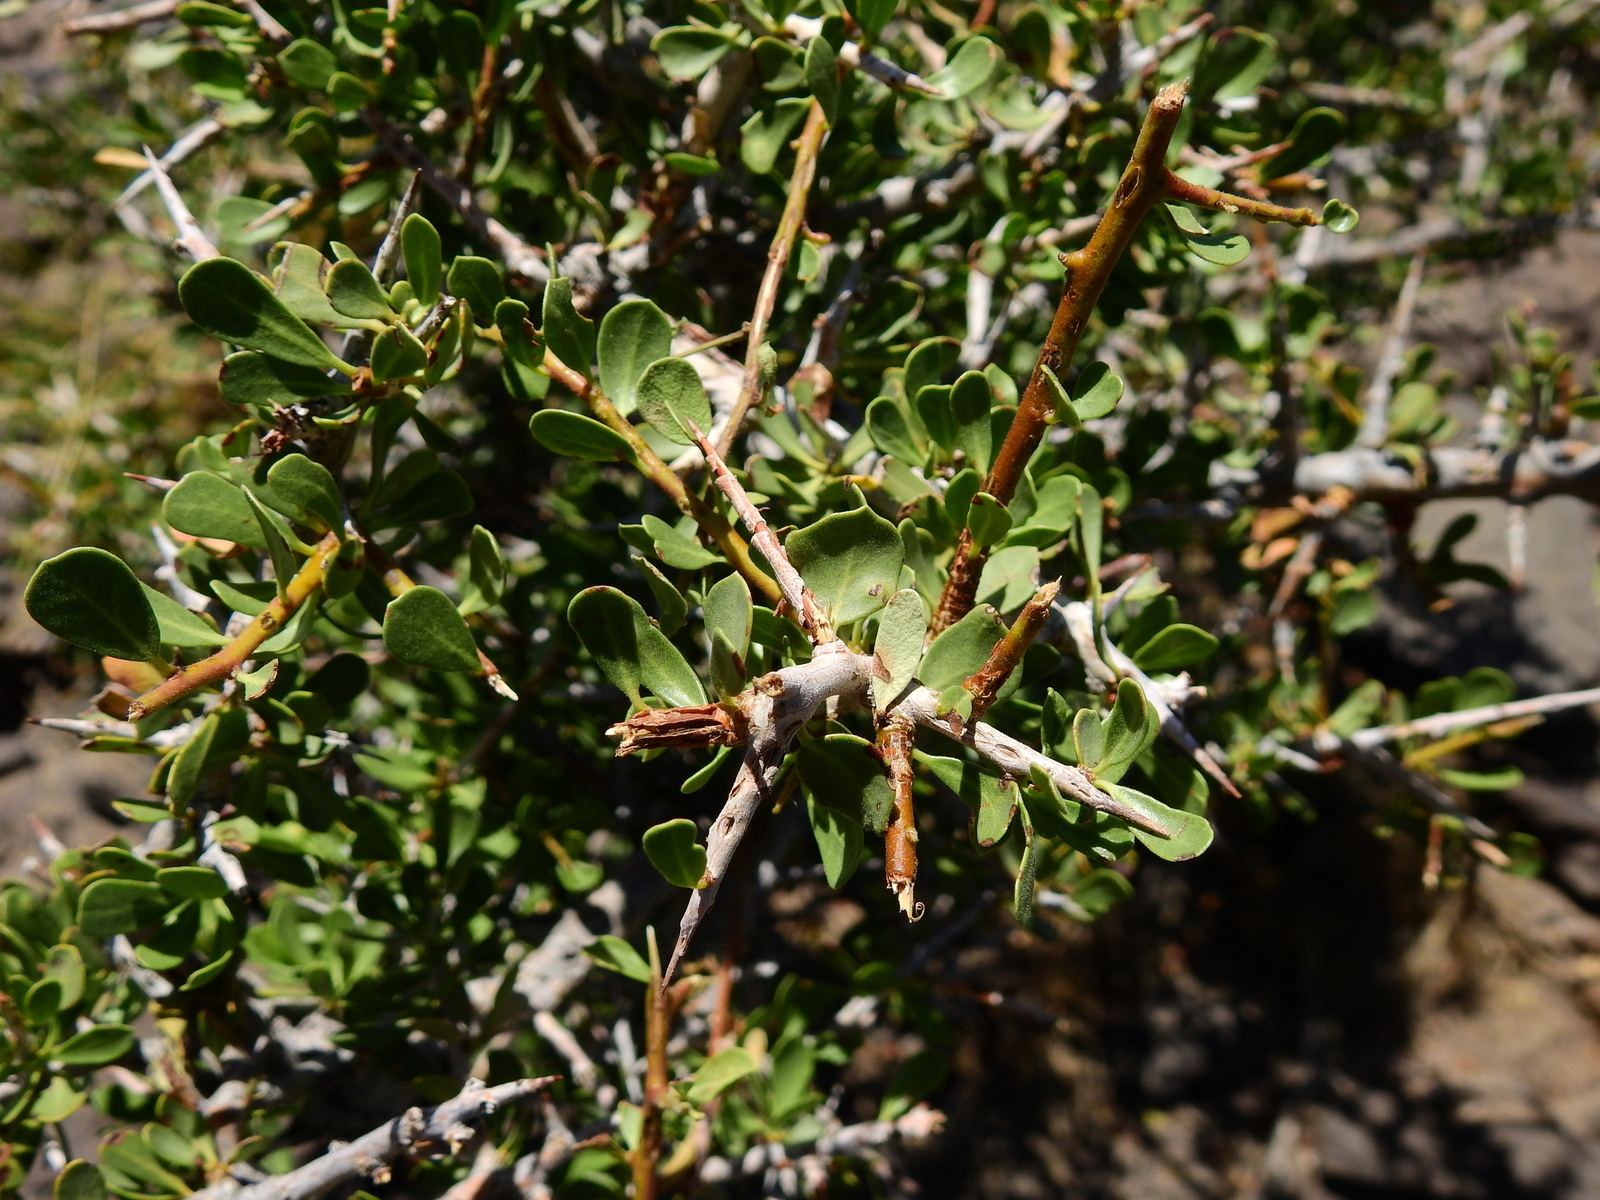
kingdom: Plantae
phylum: Tracheophyta
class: Magnoliopsida
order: Sapindales
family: Anacardiaceae
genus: Schinus
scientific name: Schinus johnstonii
